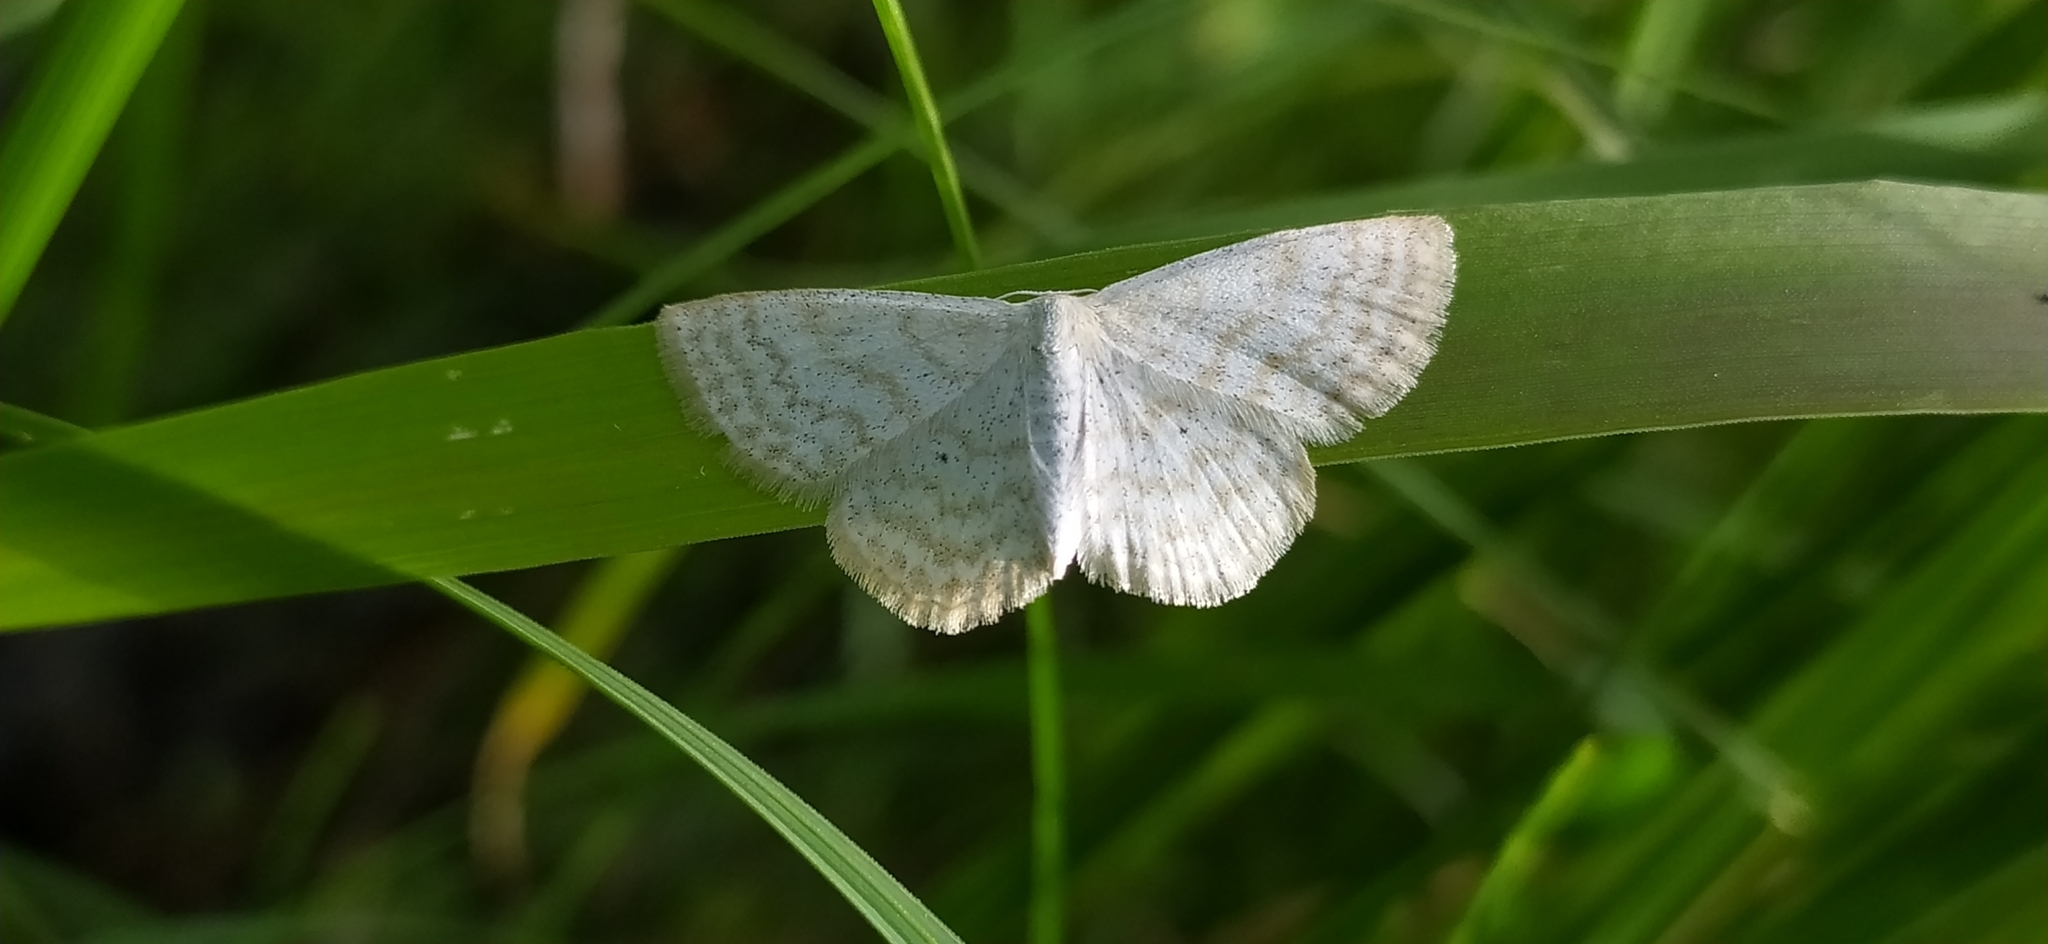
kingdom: Animalia
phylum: Arthropoda
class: Insecta
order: Lepidoptera
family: Geometridae
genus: Scopula
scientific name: Scopula immutata
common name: Lesser cream wave
